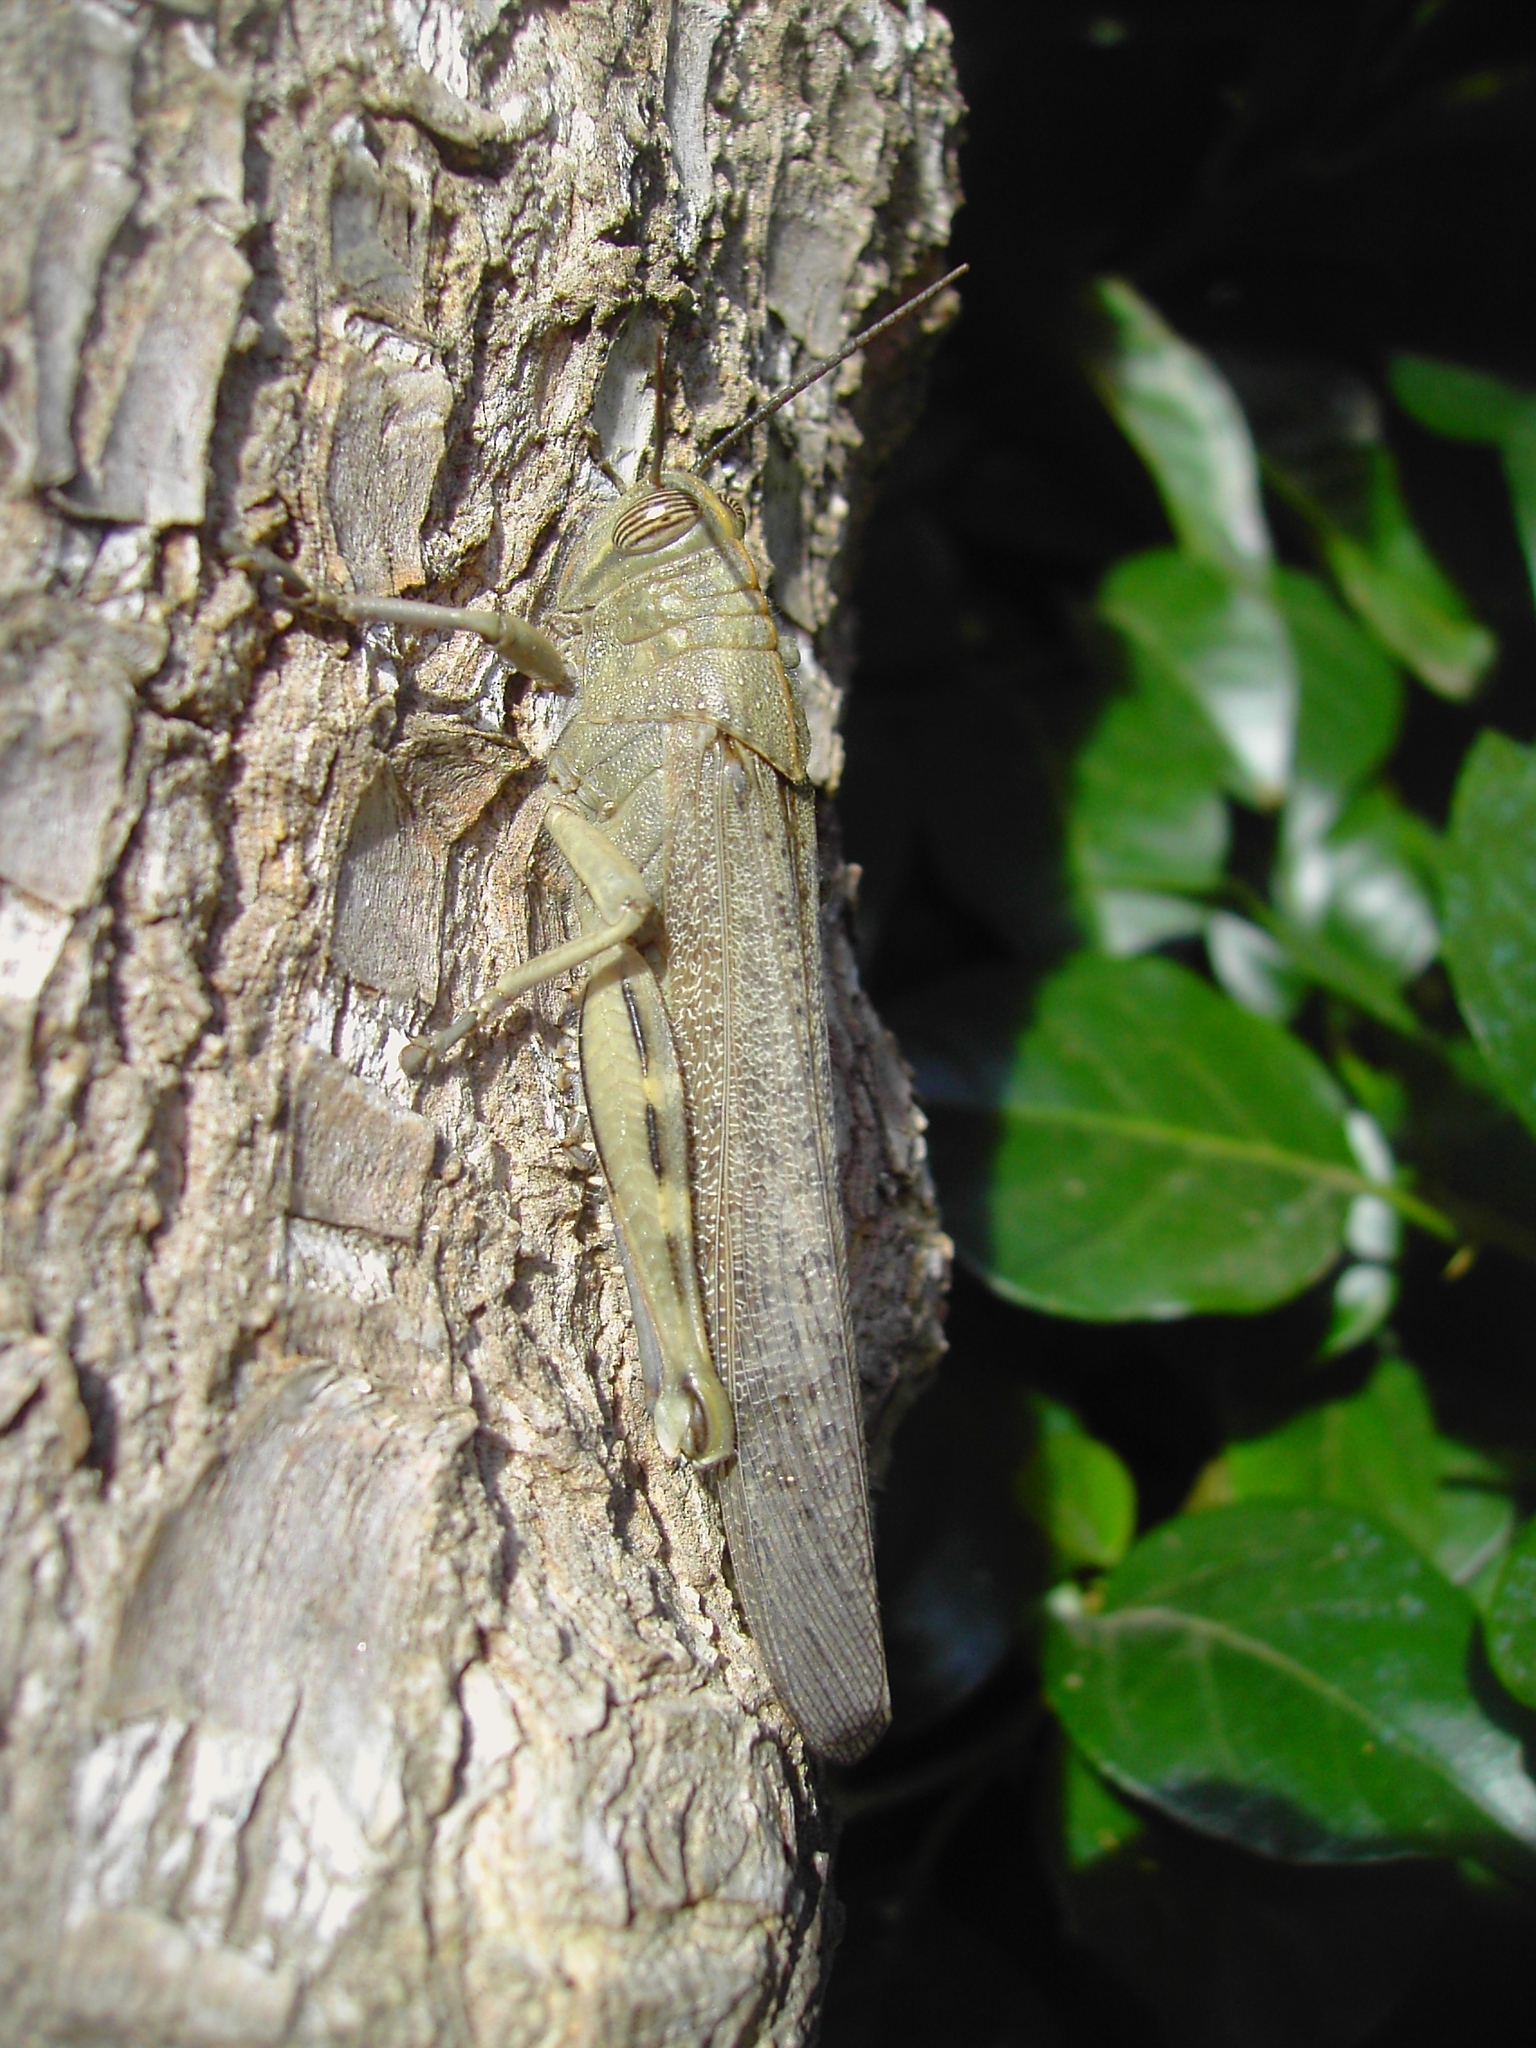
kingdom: Animalia
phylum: Arthropoda
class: Insecta
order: Orthoptera
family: Acrididae
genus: Anacridium
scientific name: Anacridium aegyptium
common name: Egyptian grasshopper
